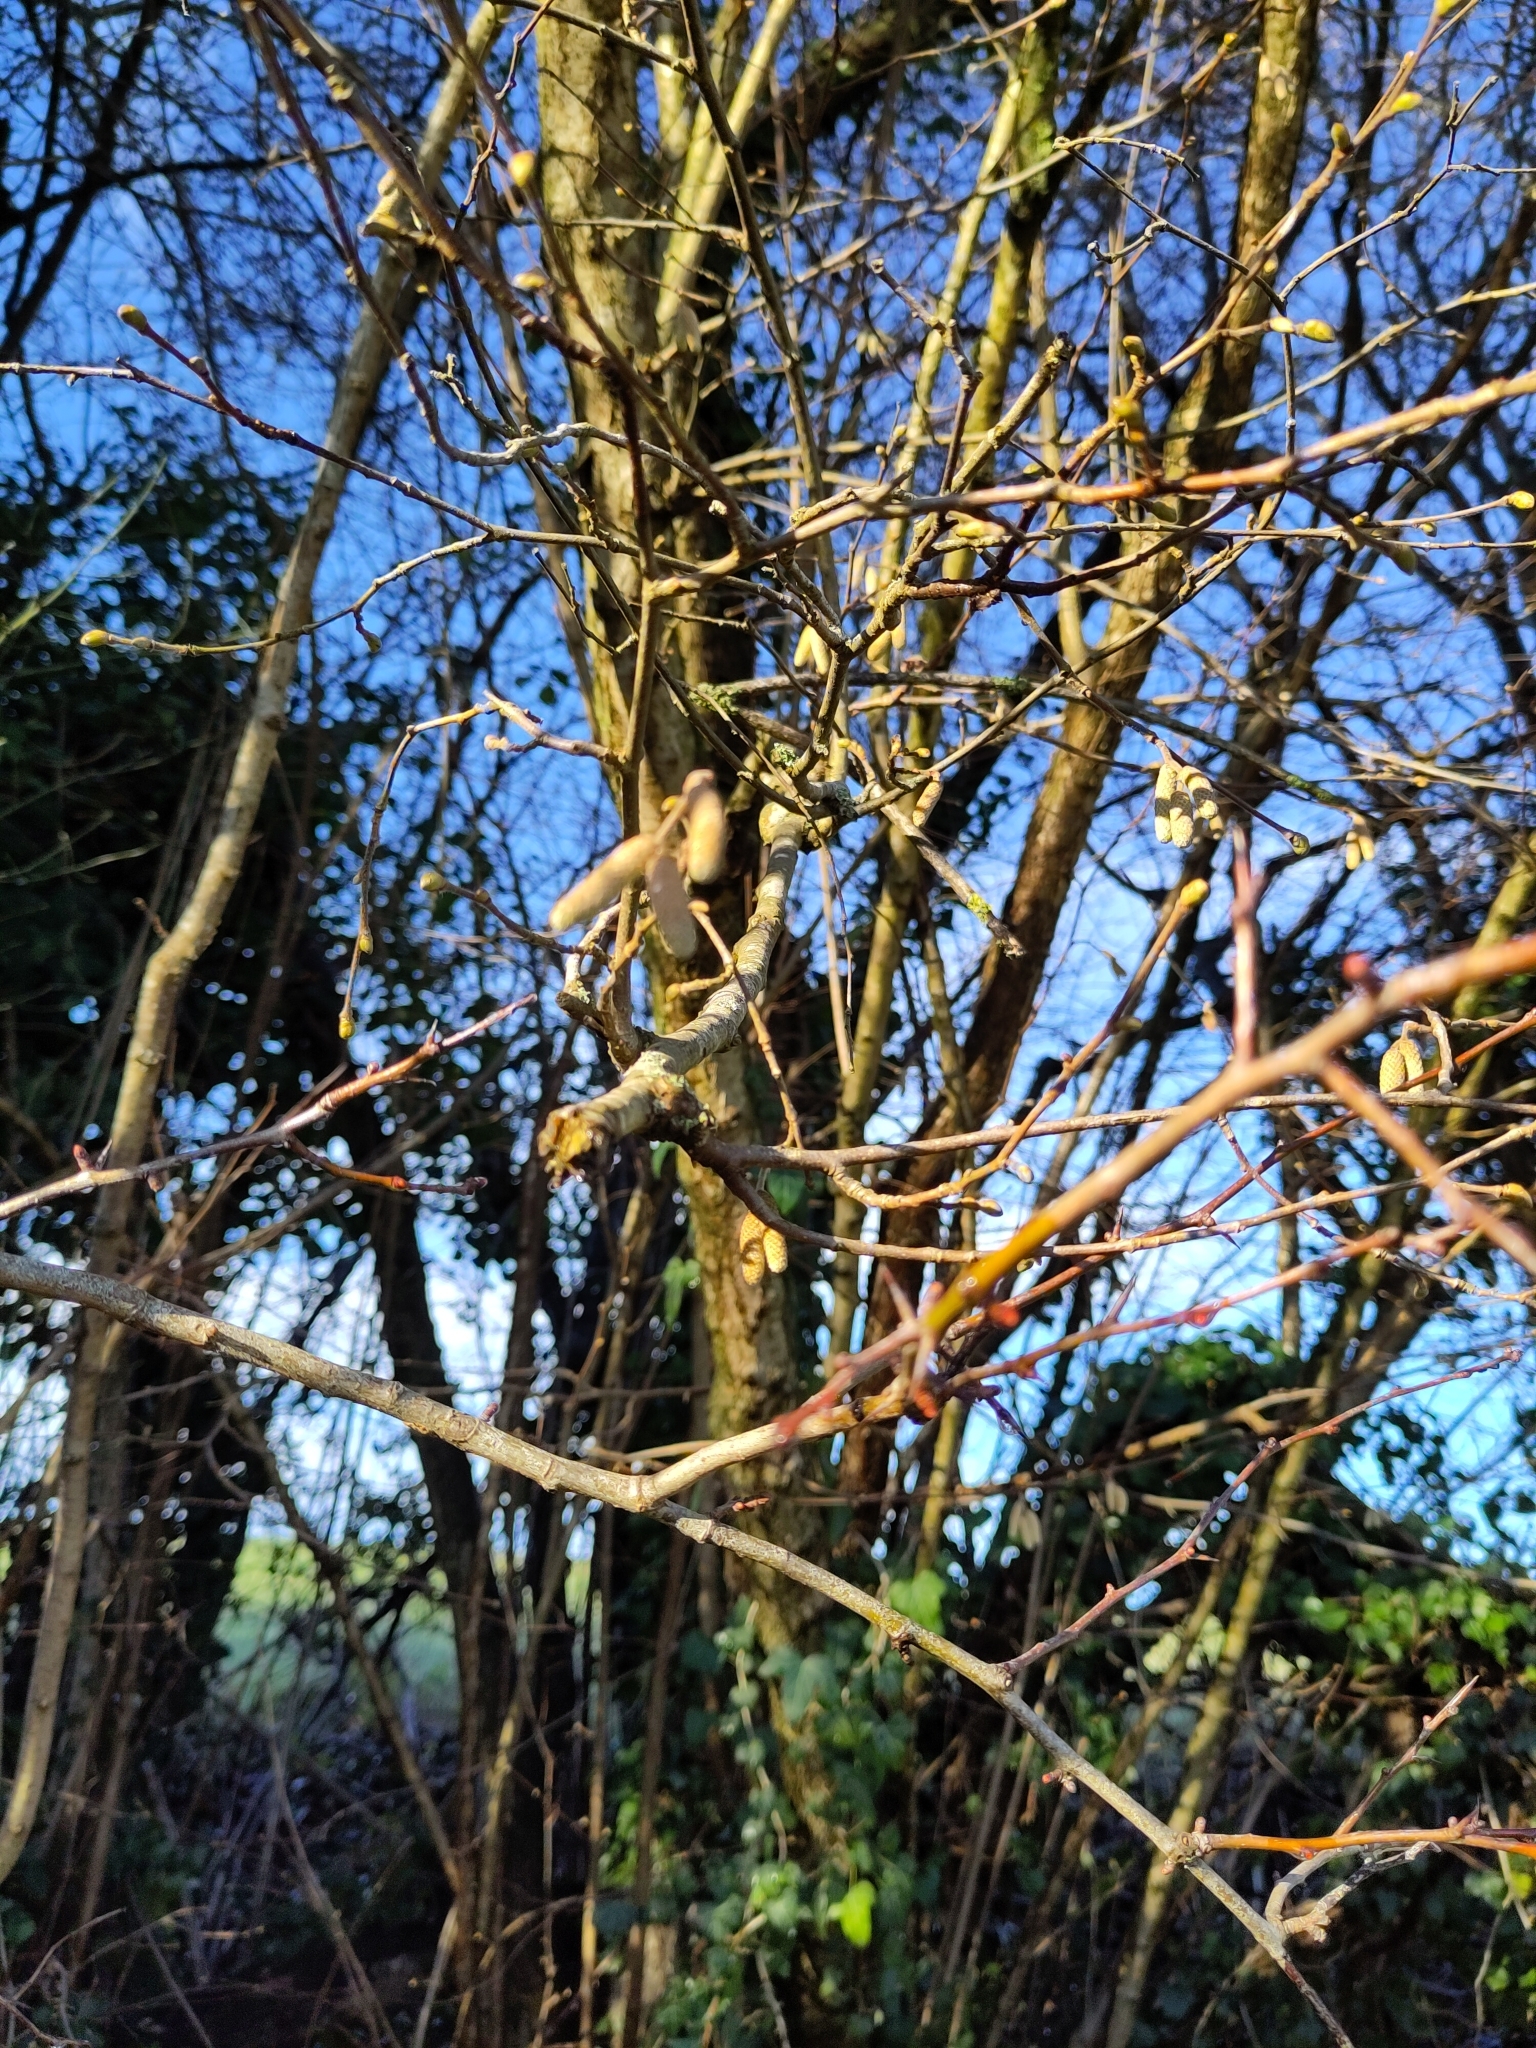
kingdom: Plantae
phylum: Tracheophyta
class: Magnoliopsida
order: Fagales
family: Betulaceae
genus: Corylus
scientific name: Corylus avellana
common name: European hazel
